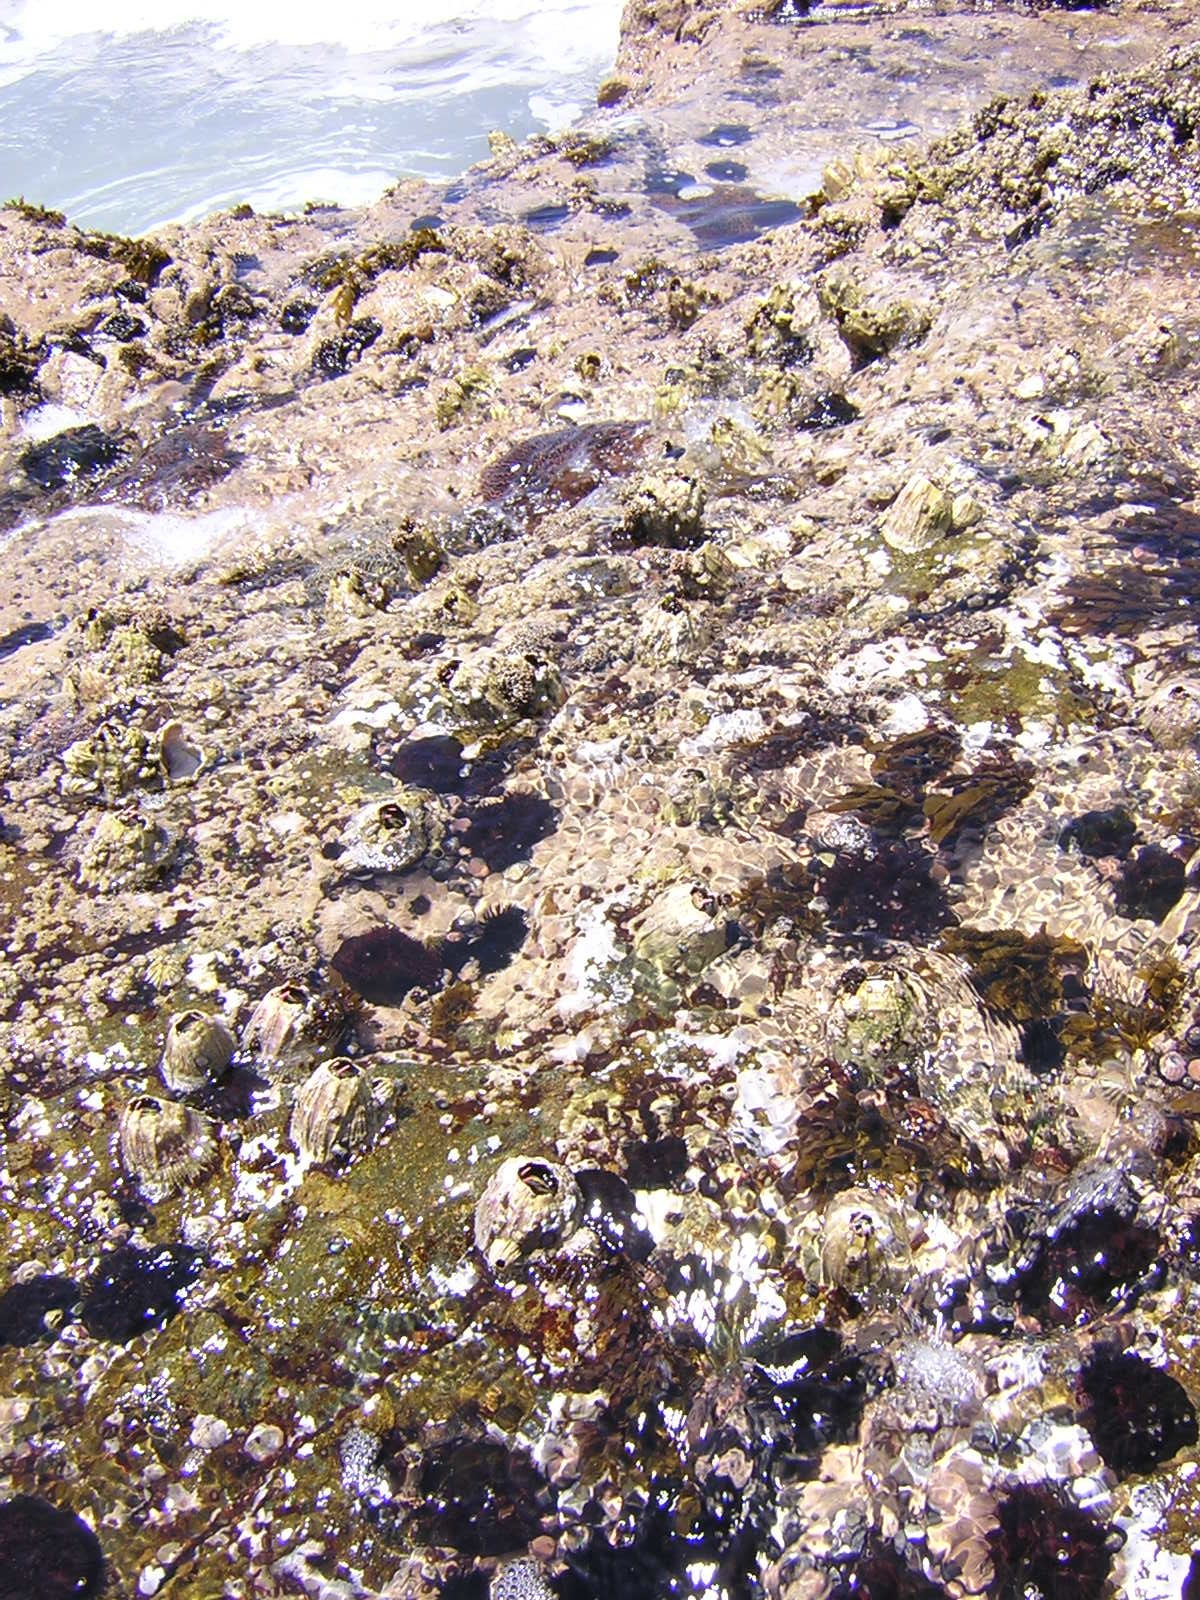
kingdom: Animalia
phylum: Arthropoda
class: Maxillopoda
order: Sessilia
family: Balanidae
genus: Austromegabalanus
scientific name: Austromegabalanus psittacus
